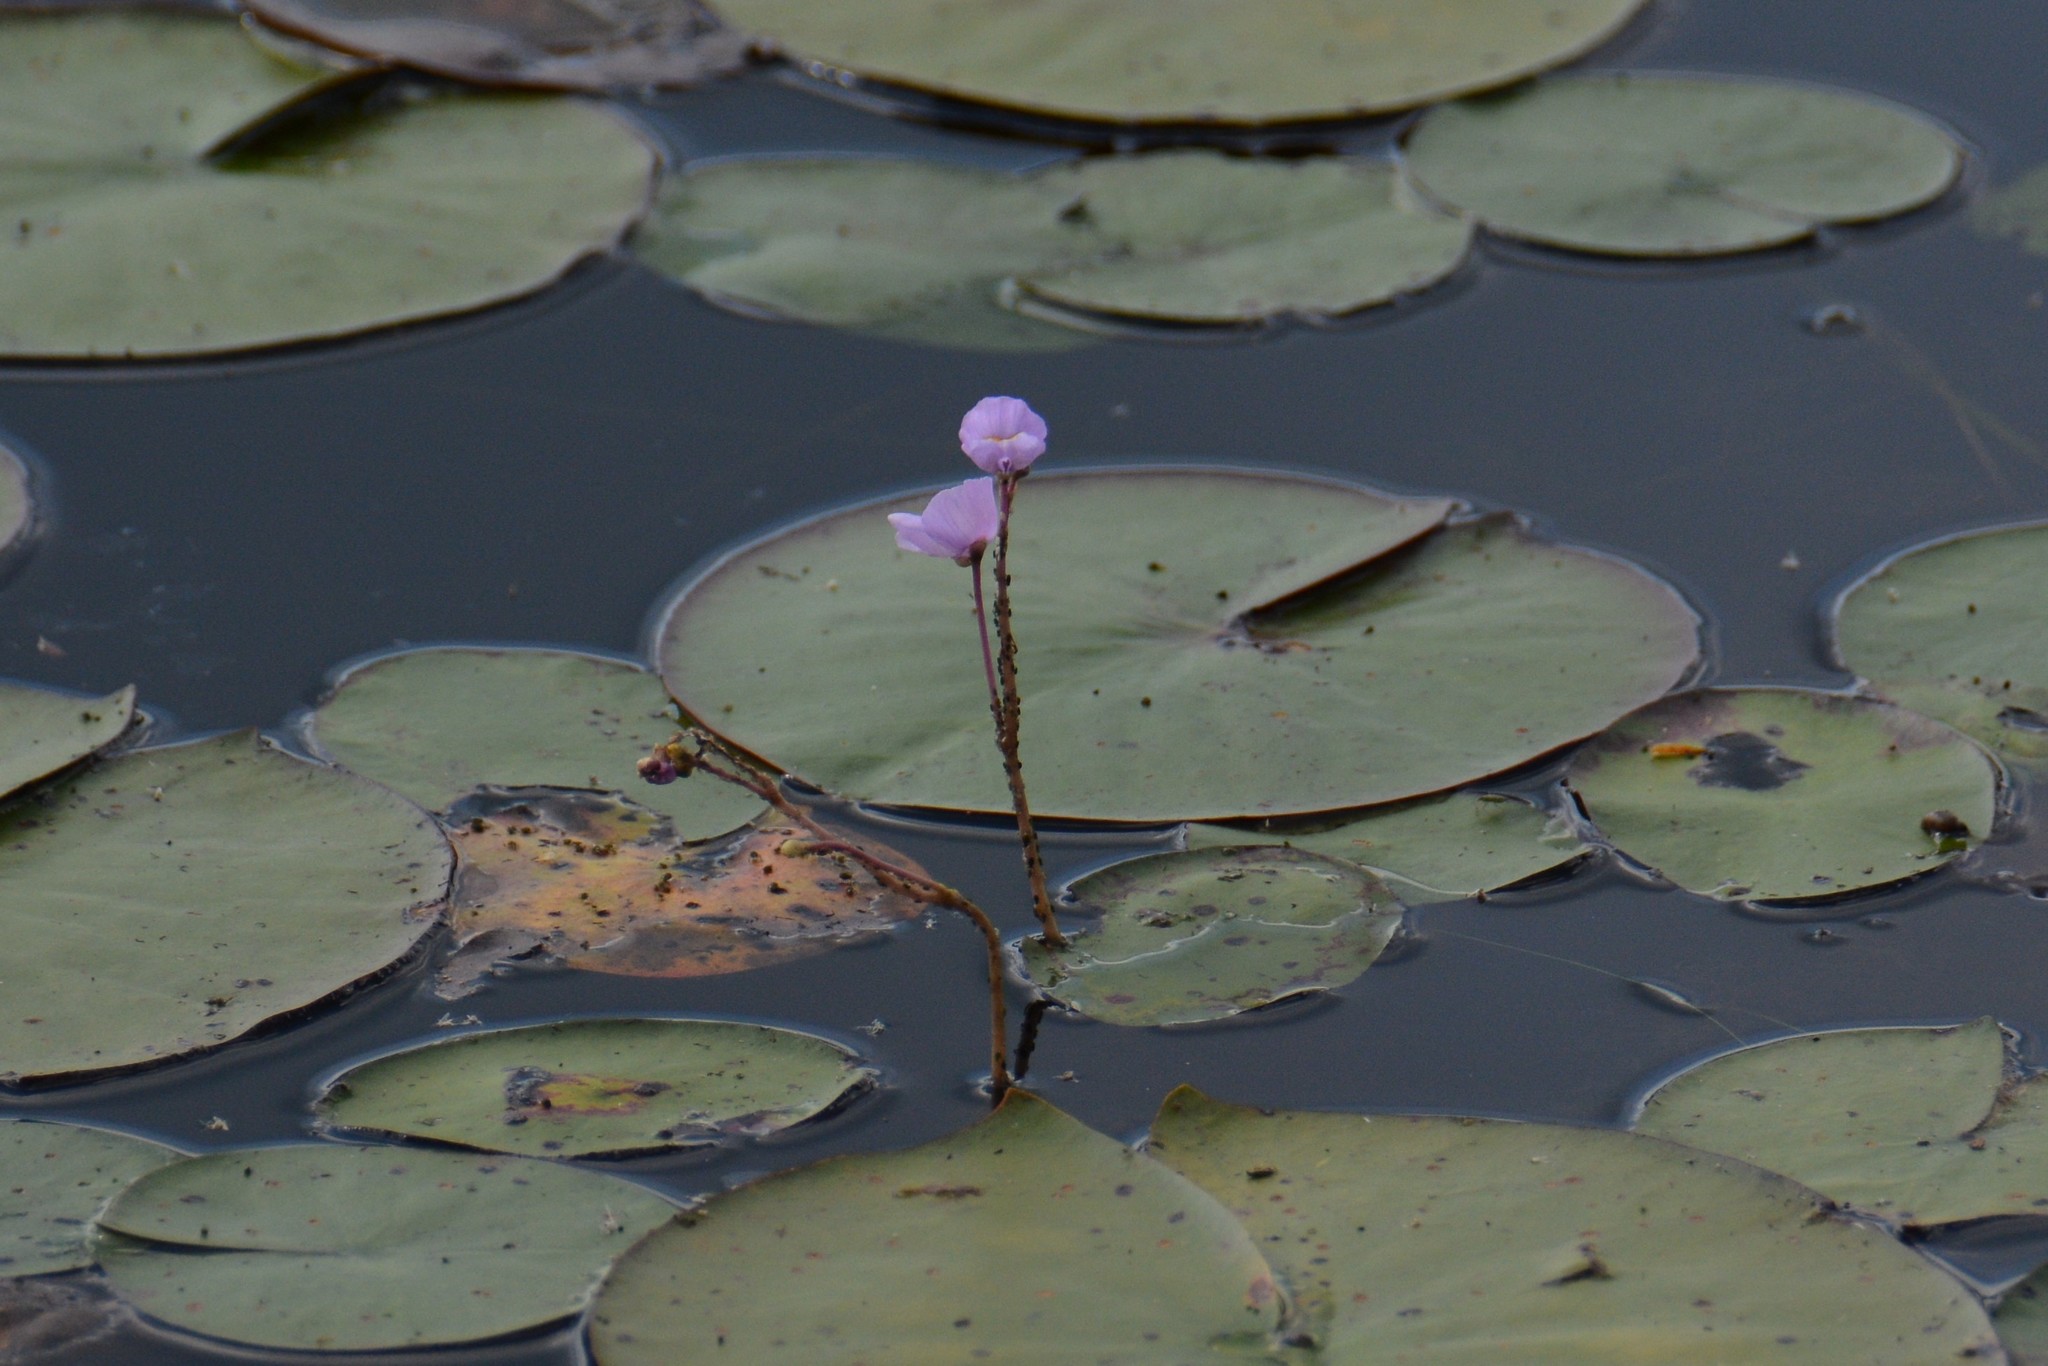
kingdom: Plantae
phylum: Tracheophyta
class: Magnoliopsida
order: Lamiales
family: Lentibulariaceae
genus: Utricularia
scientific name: Utricularia purpurea
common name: Eastern purple bladderwort
